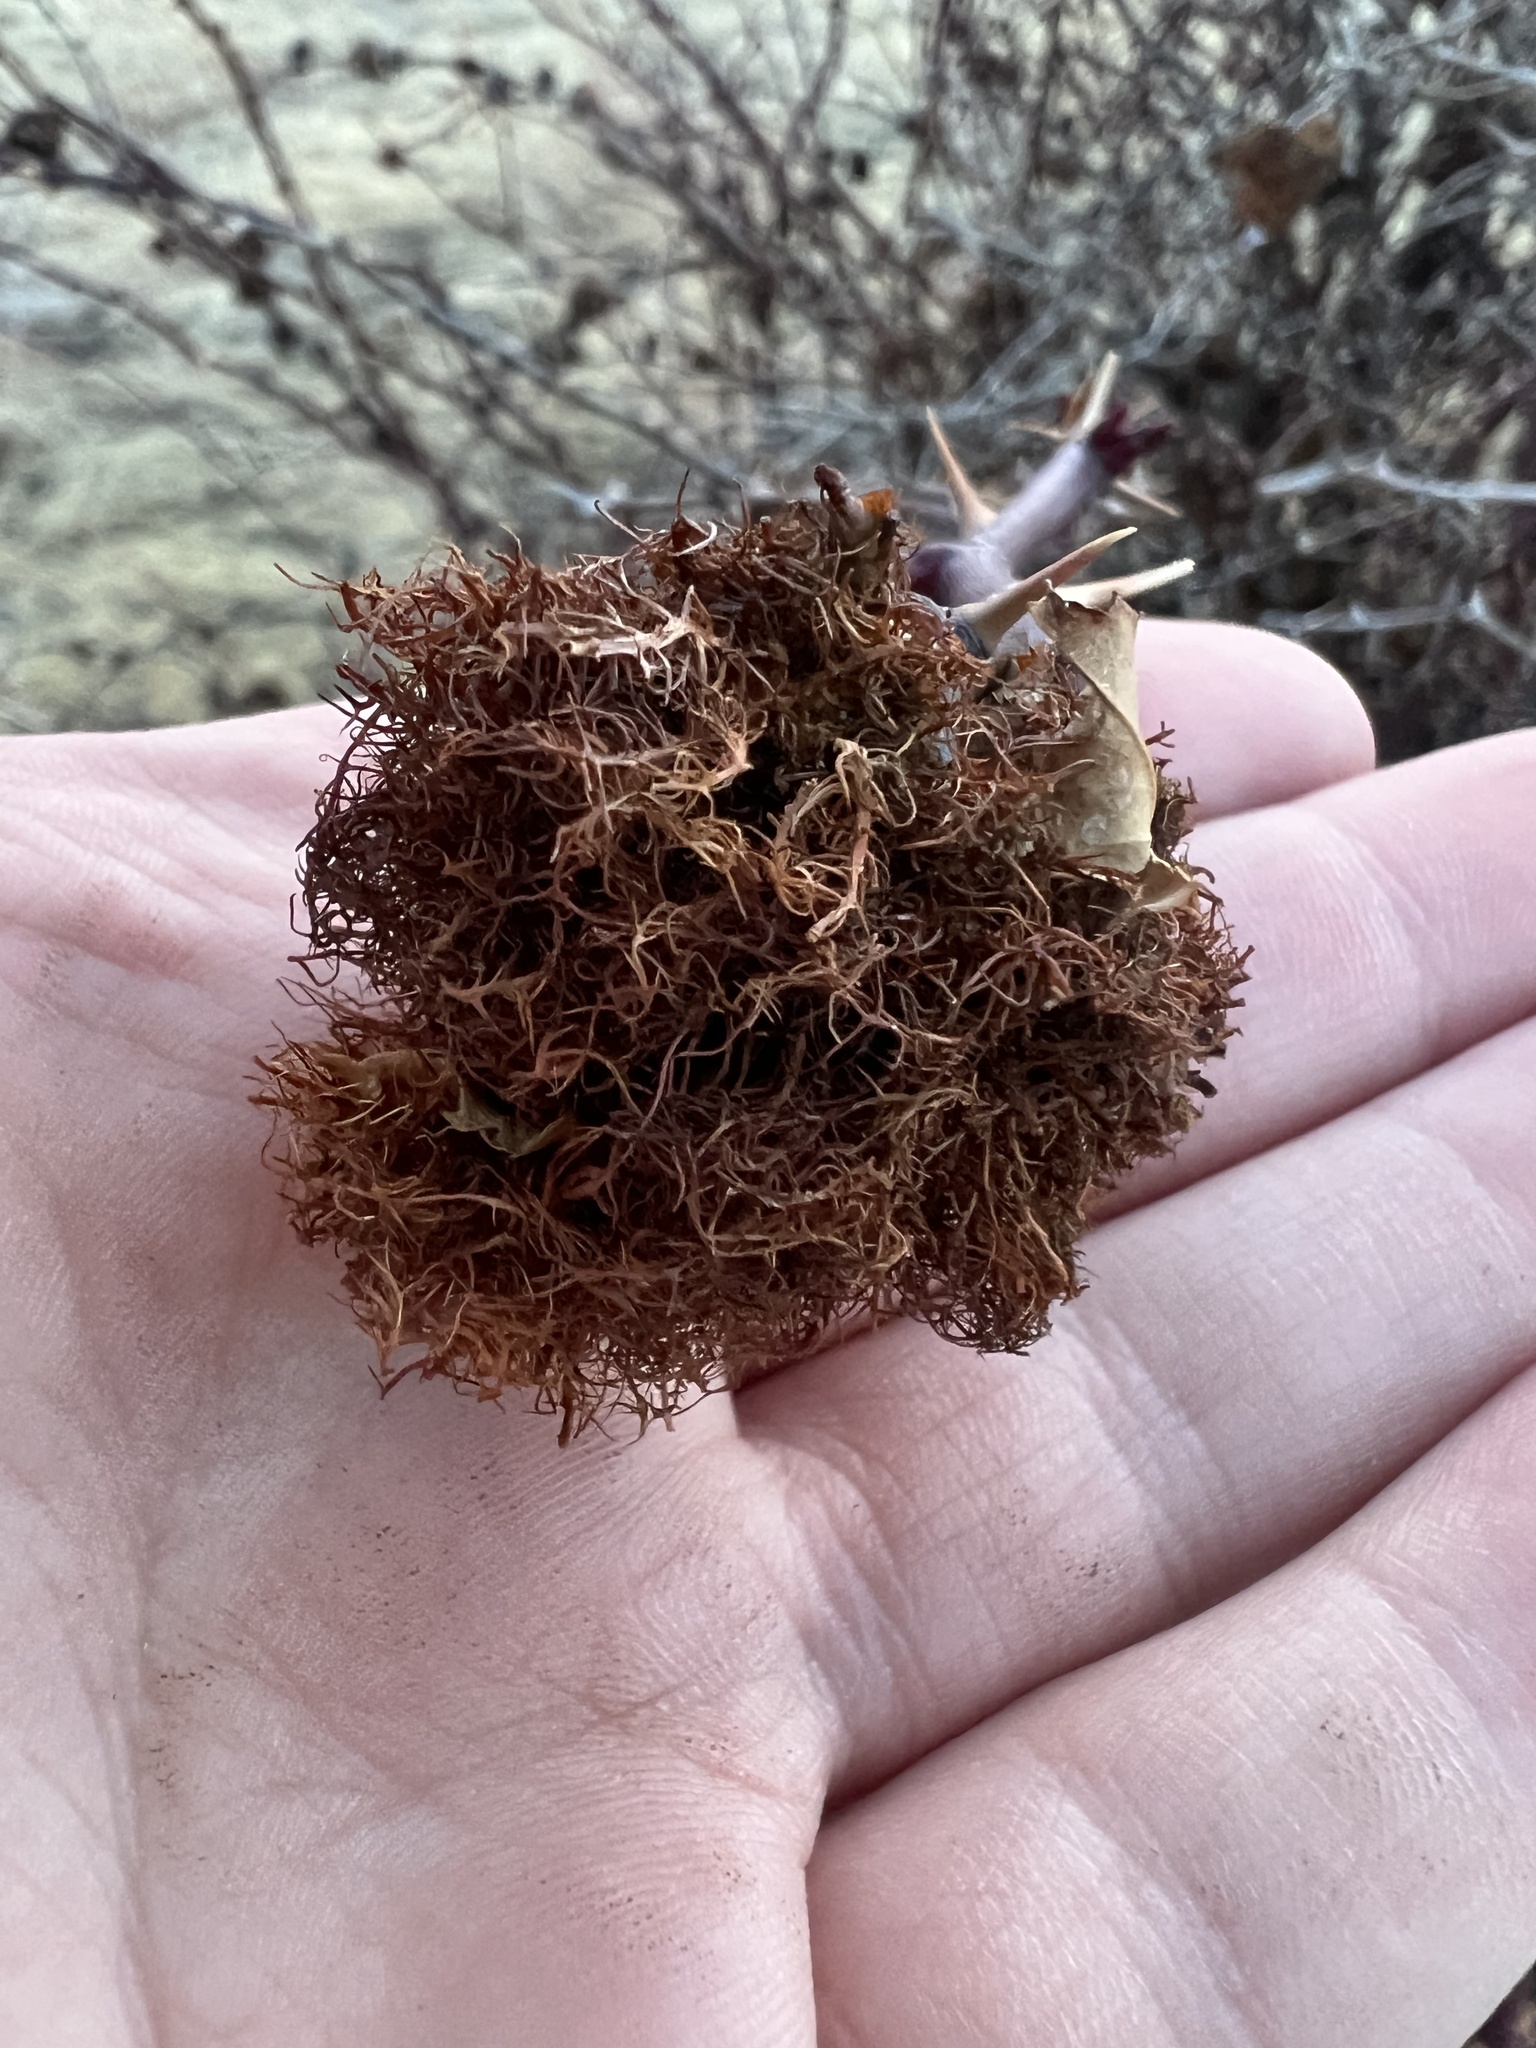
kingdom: Animalia
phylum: Arthropoda
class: Insecta
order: Hymenoptera
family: Cynipidae
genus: Diplolepis
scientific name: Diplolepis rosae
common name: Bedeguar gall
